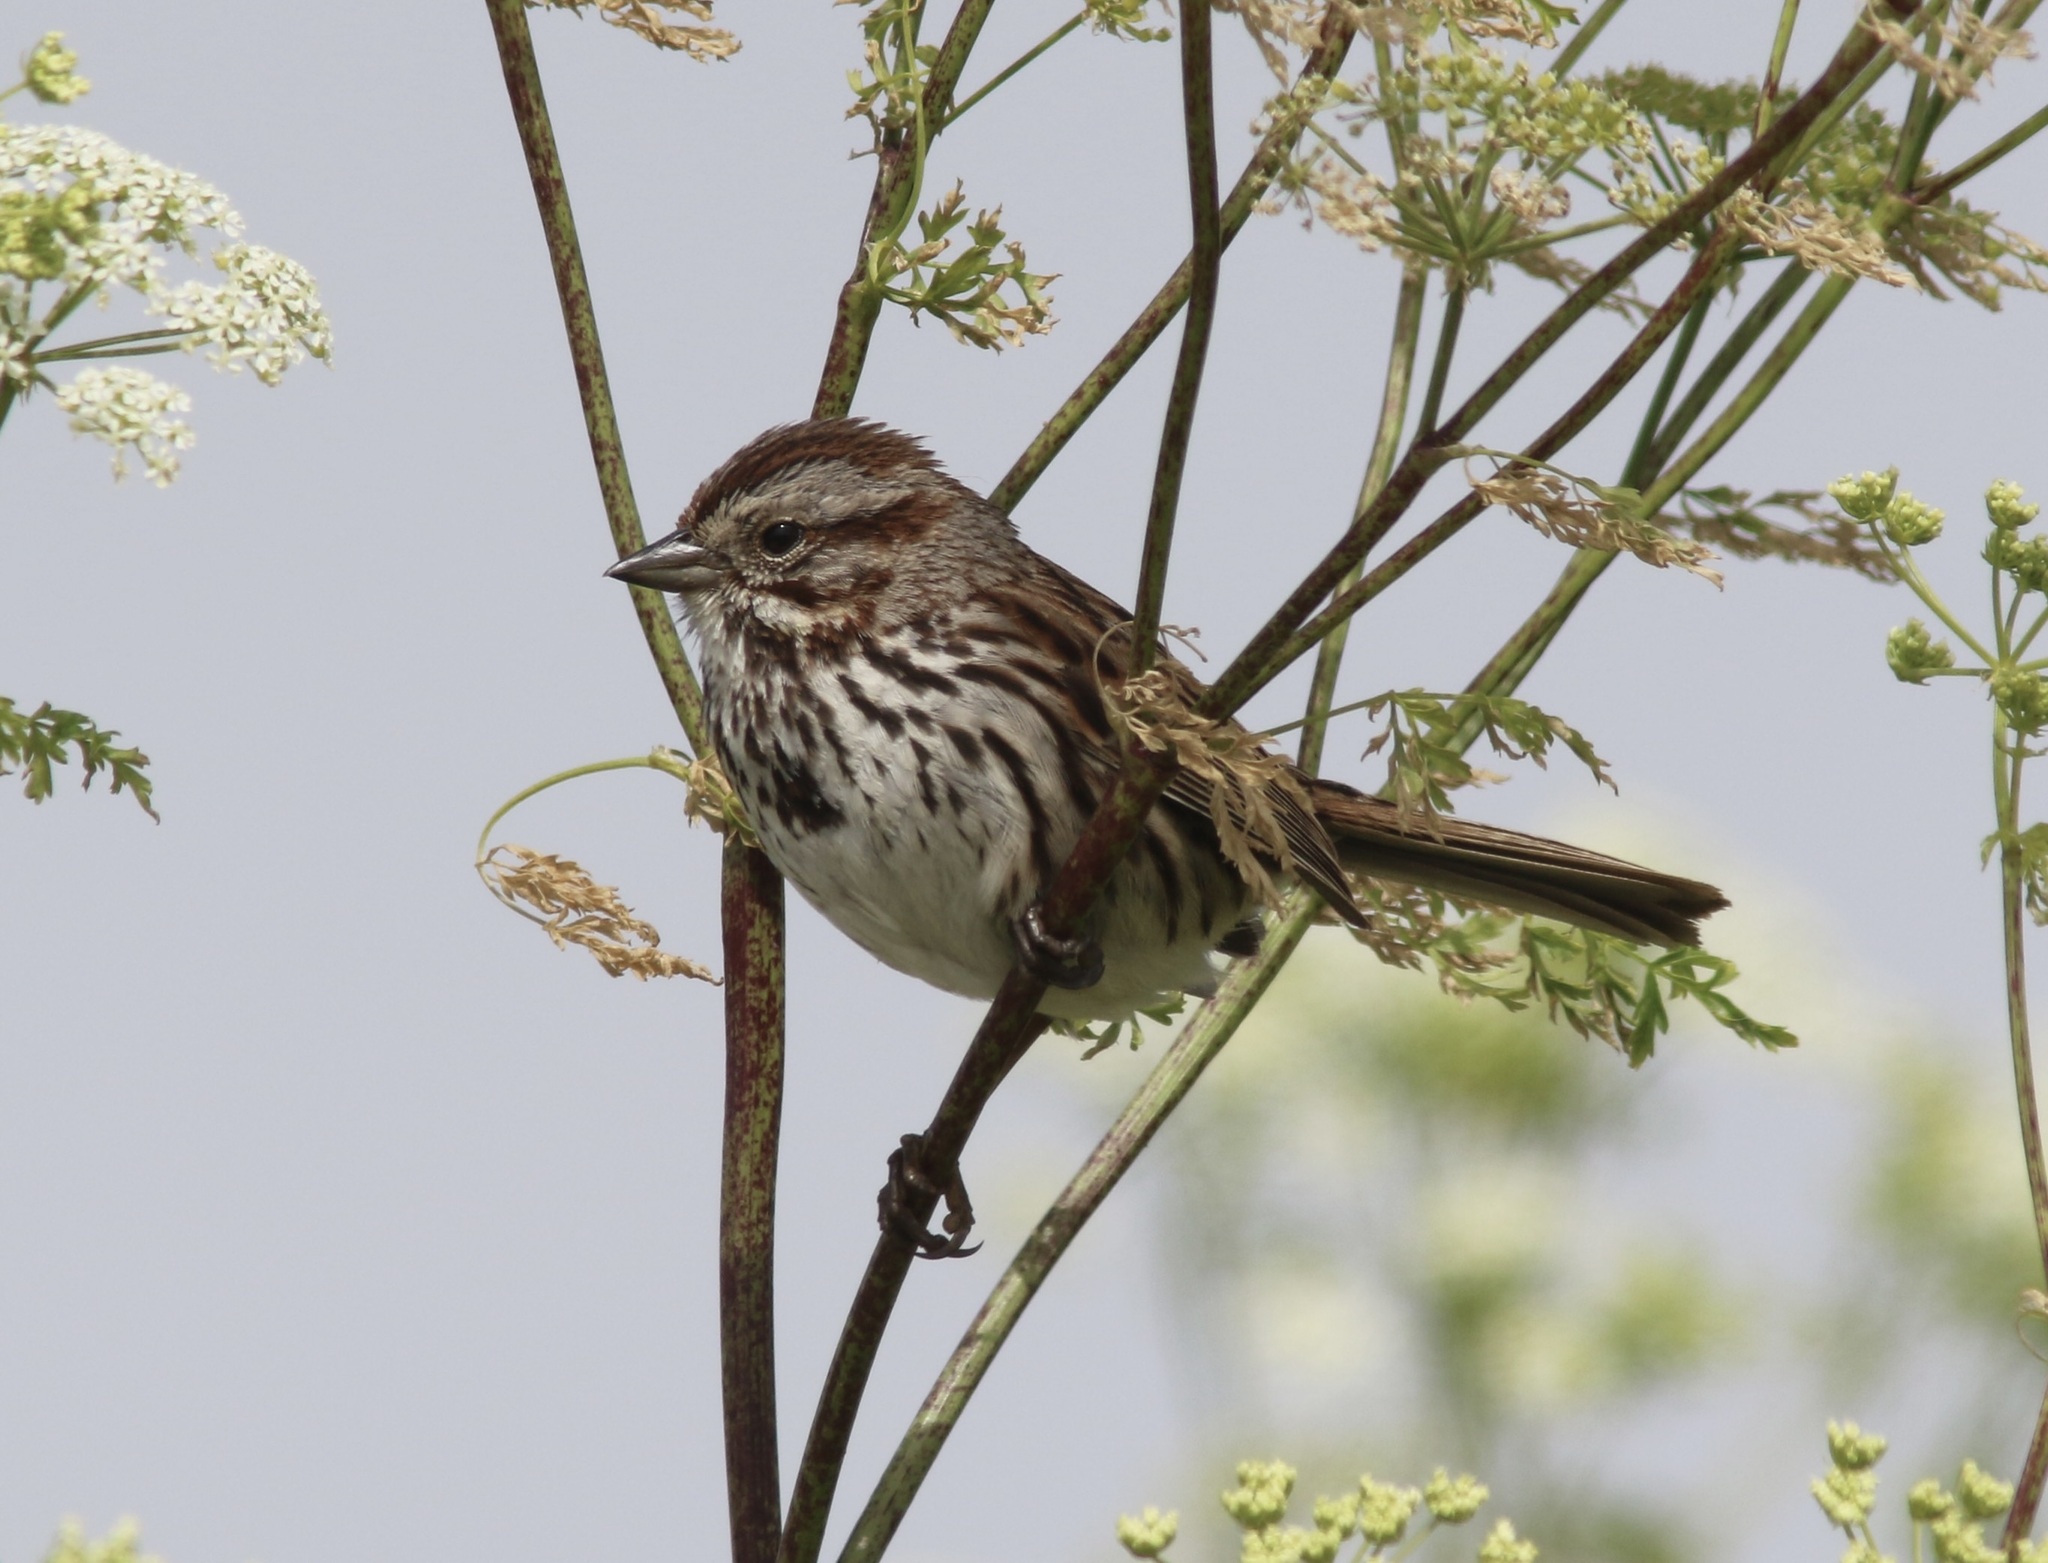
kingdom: Animalia
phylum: Chordata
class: Aves
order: Passeriformes
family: Passerellidae
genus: Melospiza
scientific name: Melospiza melodia
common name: Song sparrow
